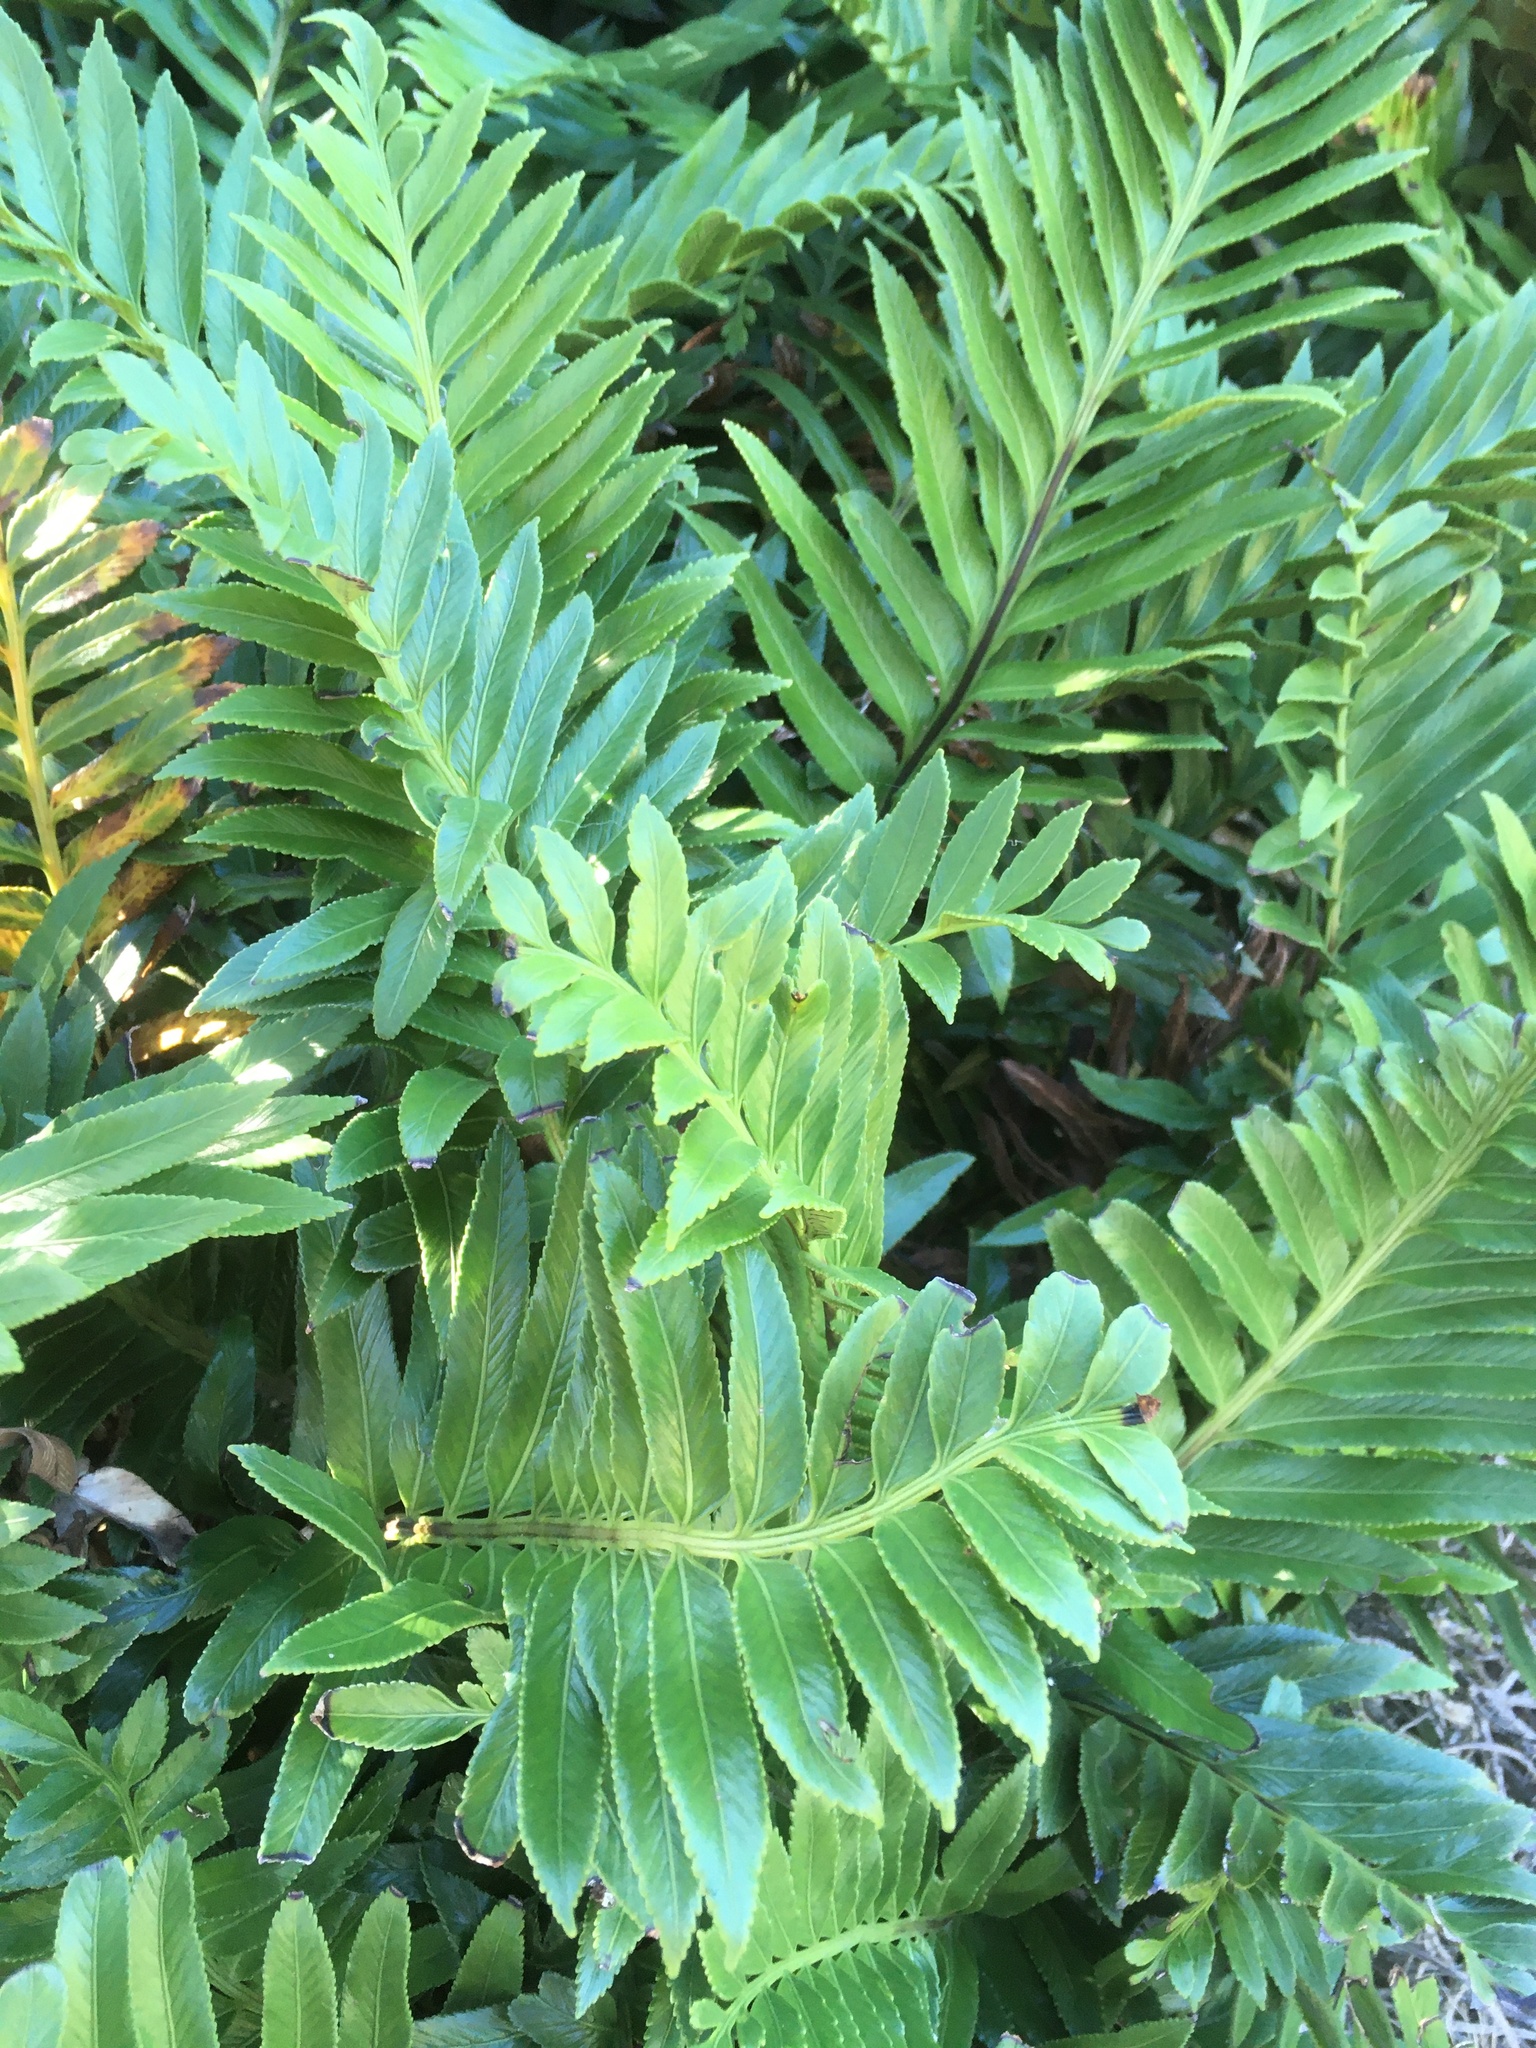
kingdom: Plantae
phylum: Tracheophyta
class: Polypodiopsida
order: Polypodiales
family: Aspleniaceae
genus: Asplenium
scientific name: Asplenium obtusatum
